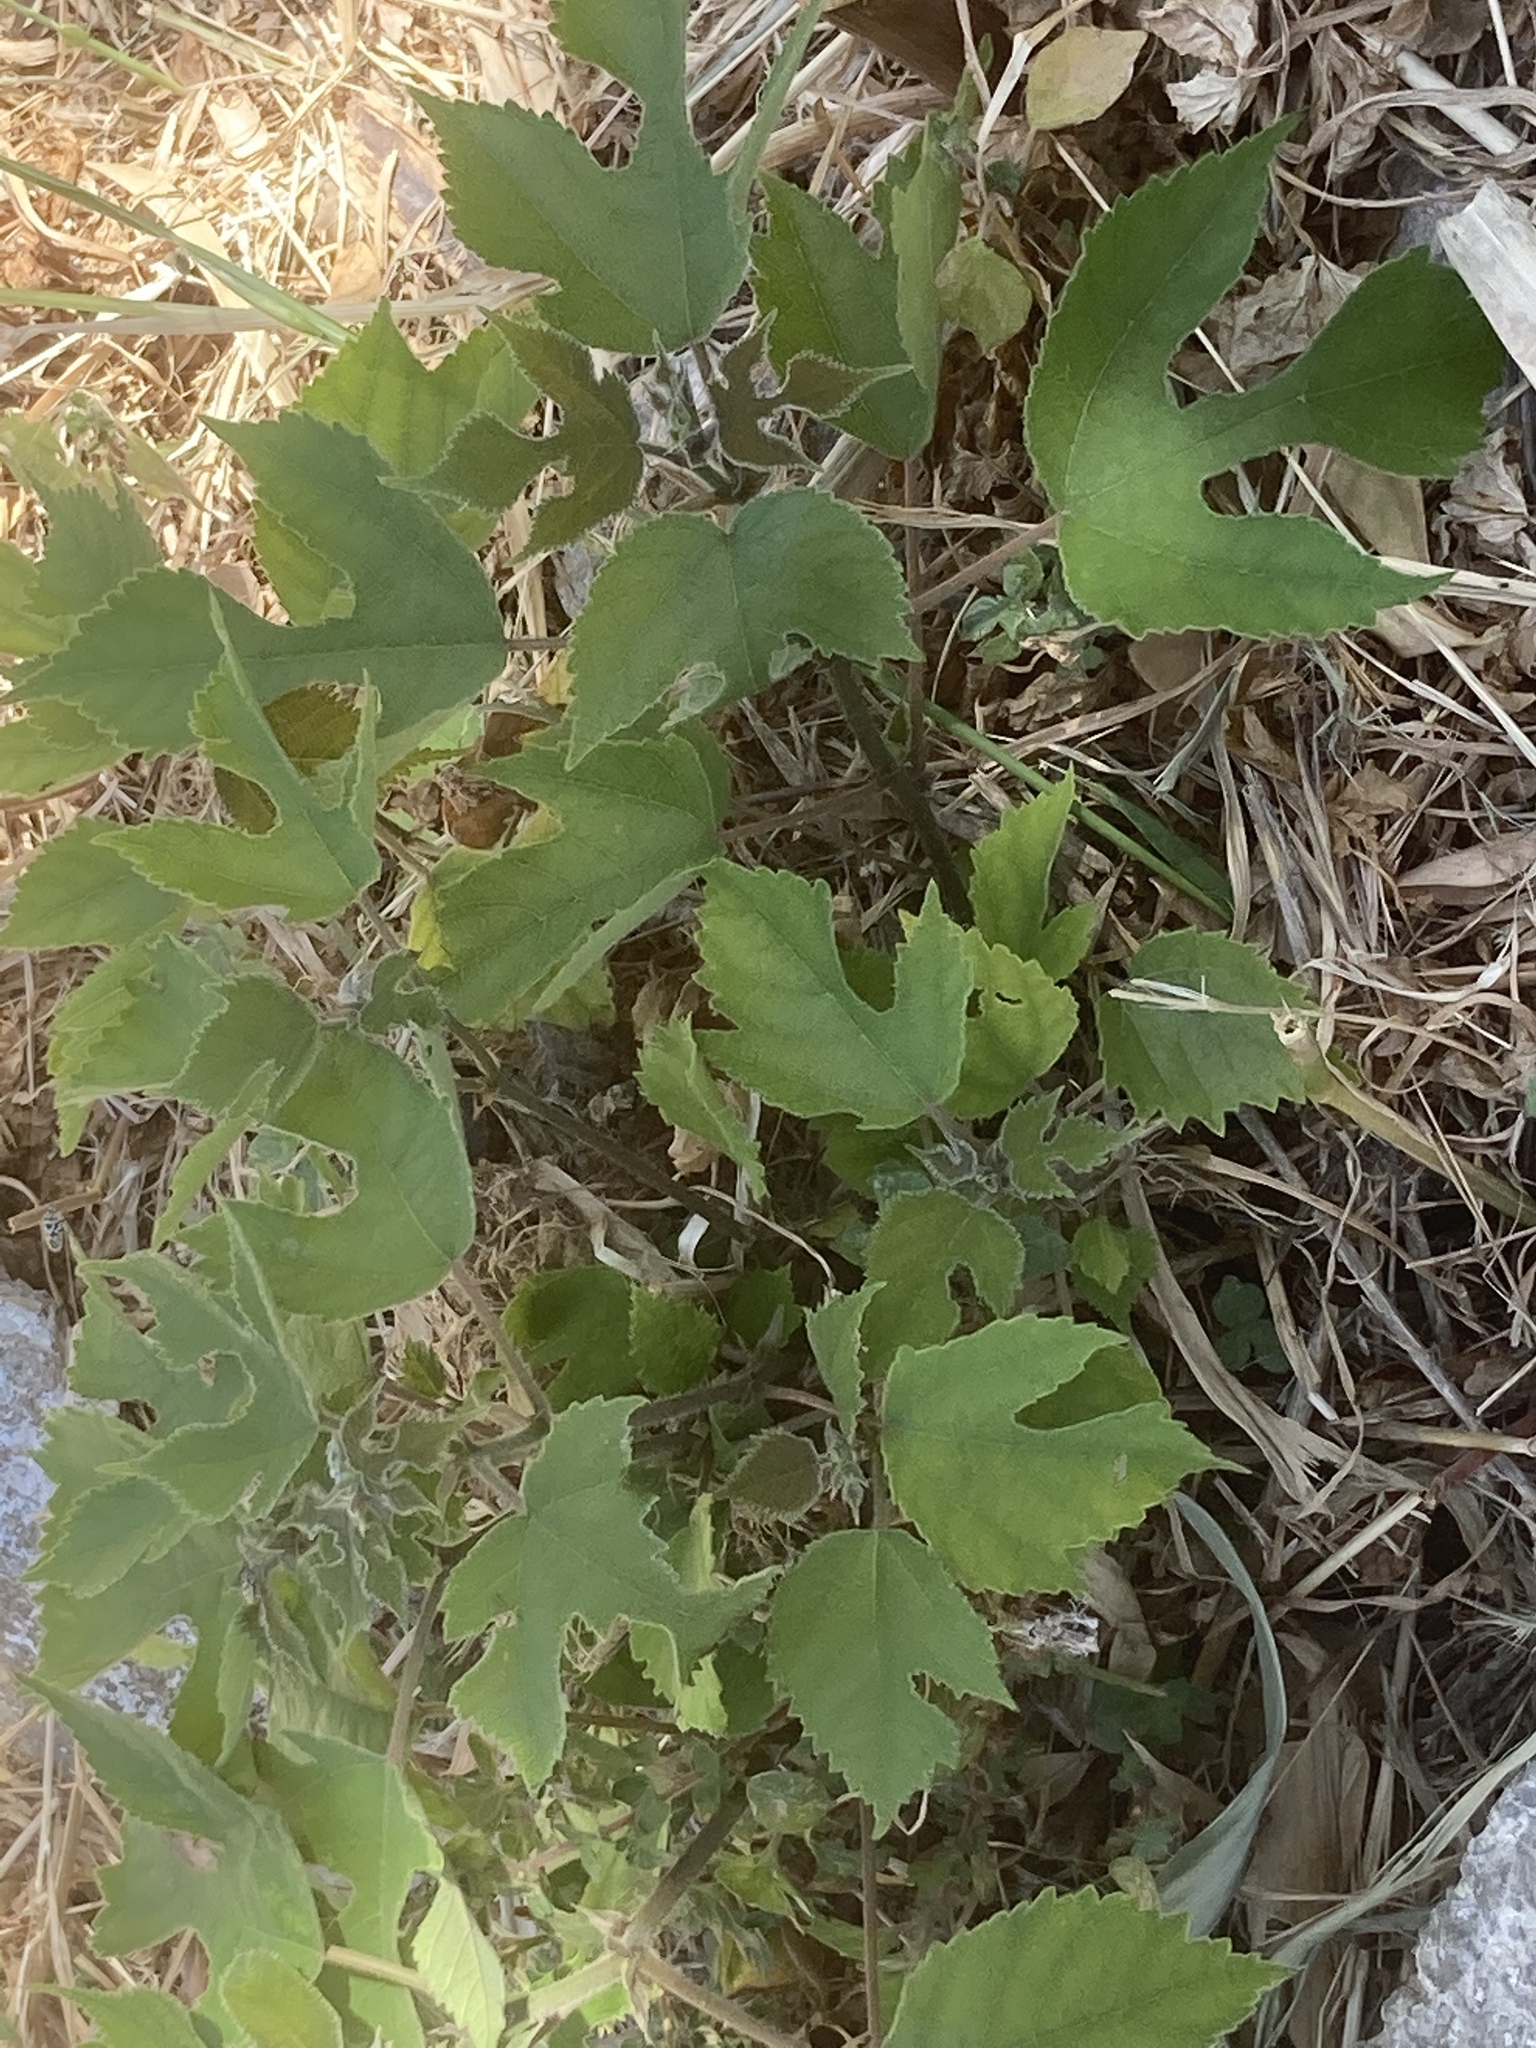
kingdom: Plantae
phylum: Tracheophyta
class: Magnoliopsida
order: Rosales
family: Moraceae
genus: Broussonetia
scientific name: Broussonetia papyrifera
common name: Paper mulberry
